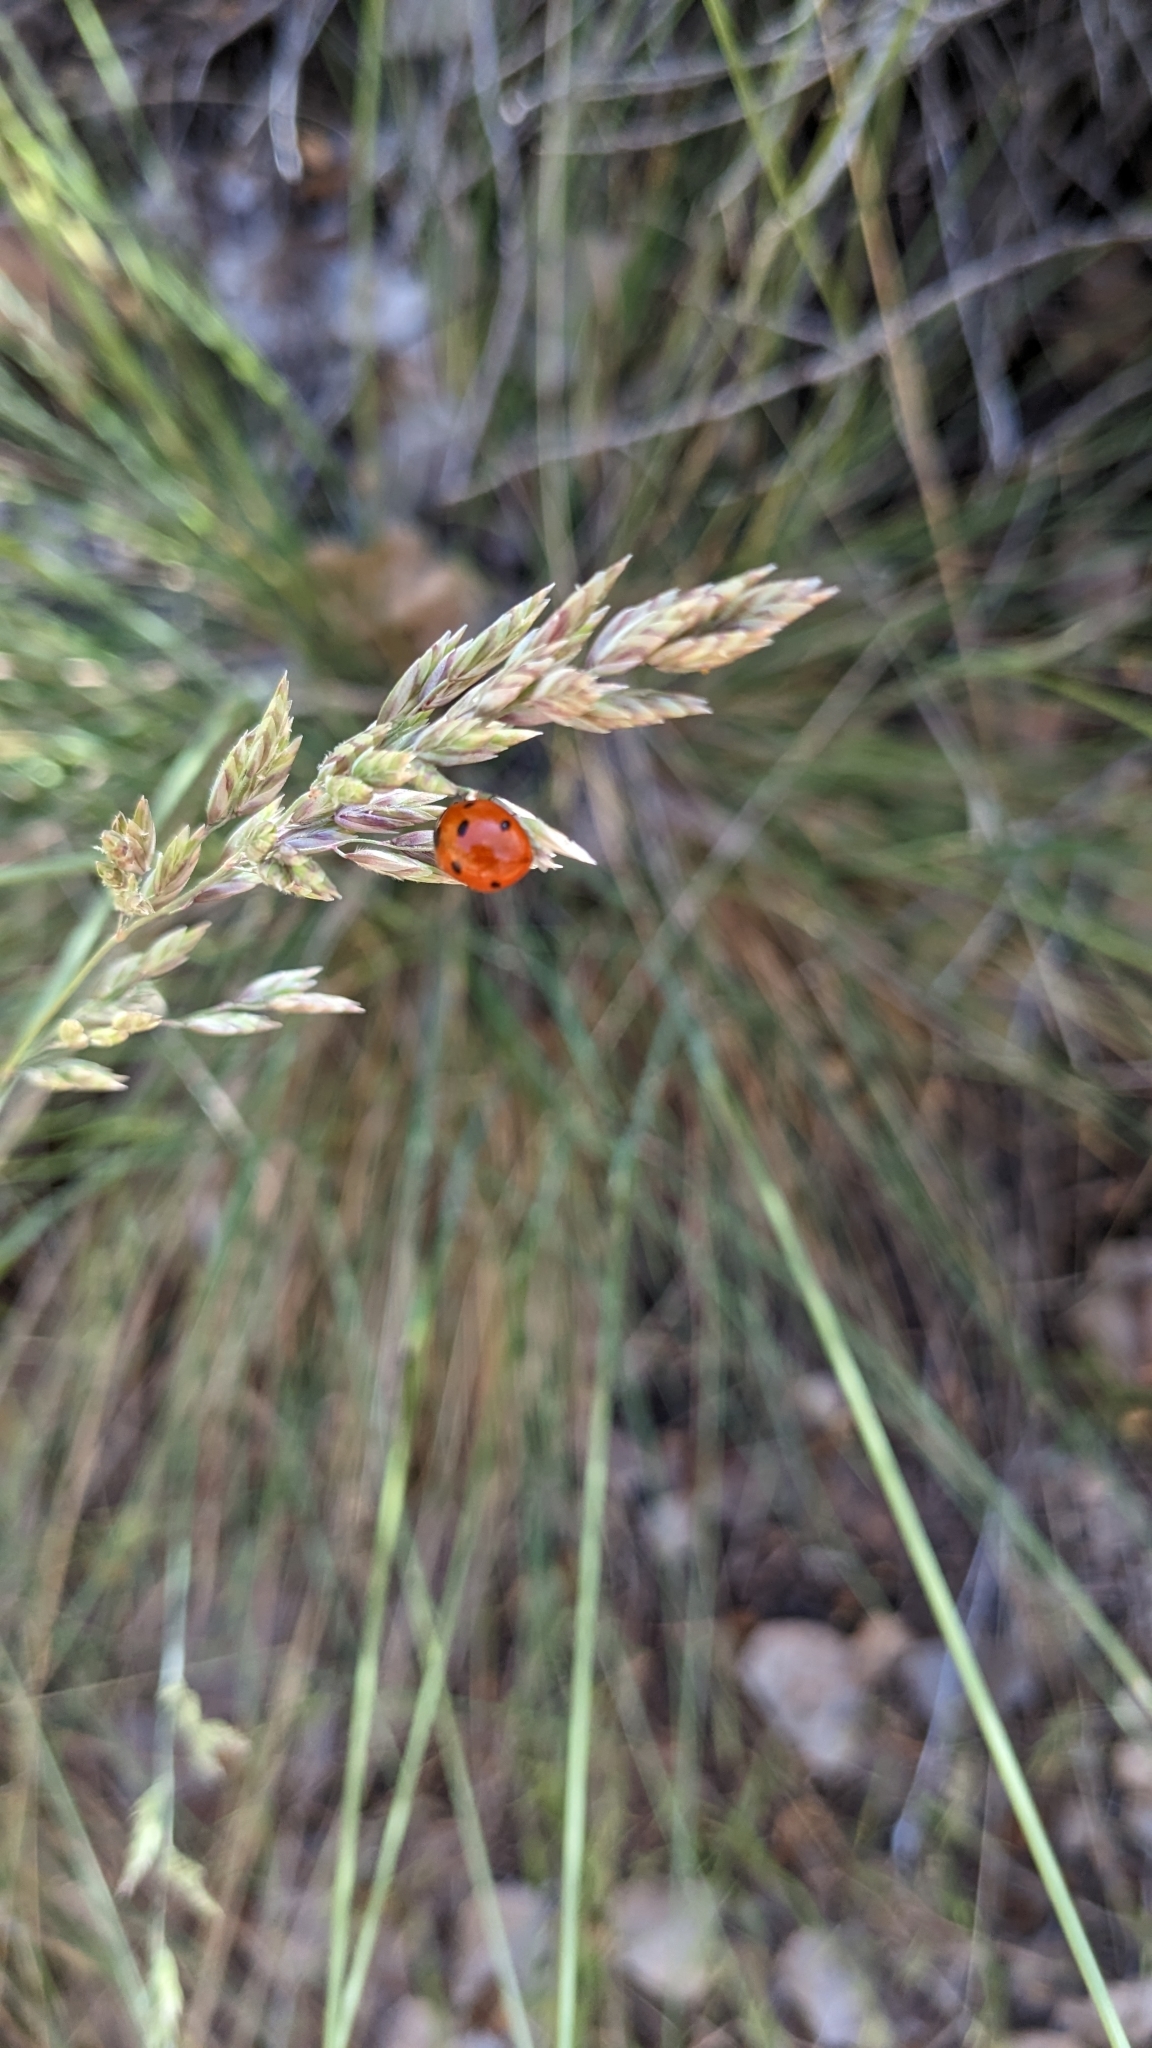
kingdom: Animalia
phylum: Arthropoda
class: Insecta
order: Coleoptera
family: Coccinellidae
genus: Coccinella
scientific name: Coccinella septempunctata
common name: Sevenspotted lady beetle
